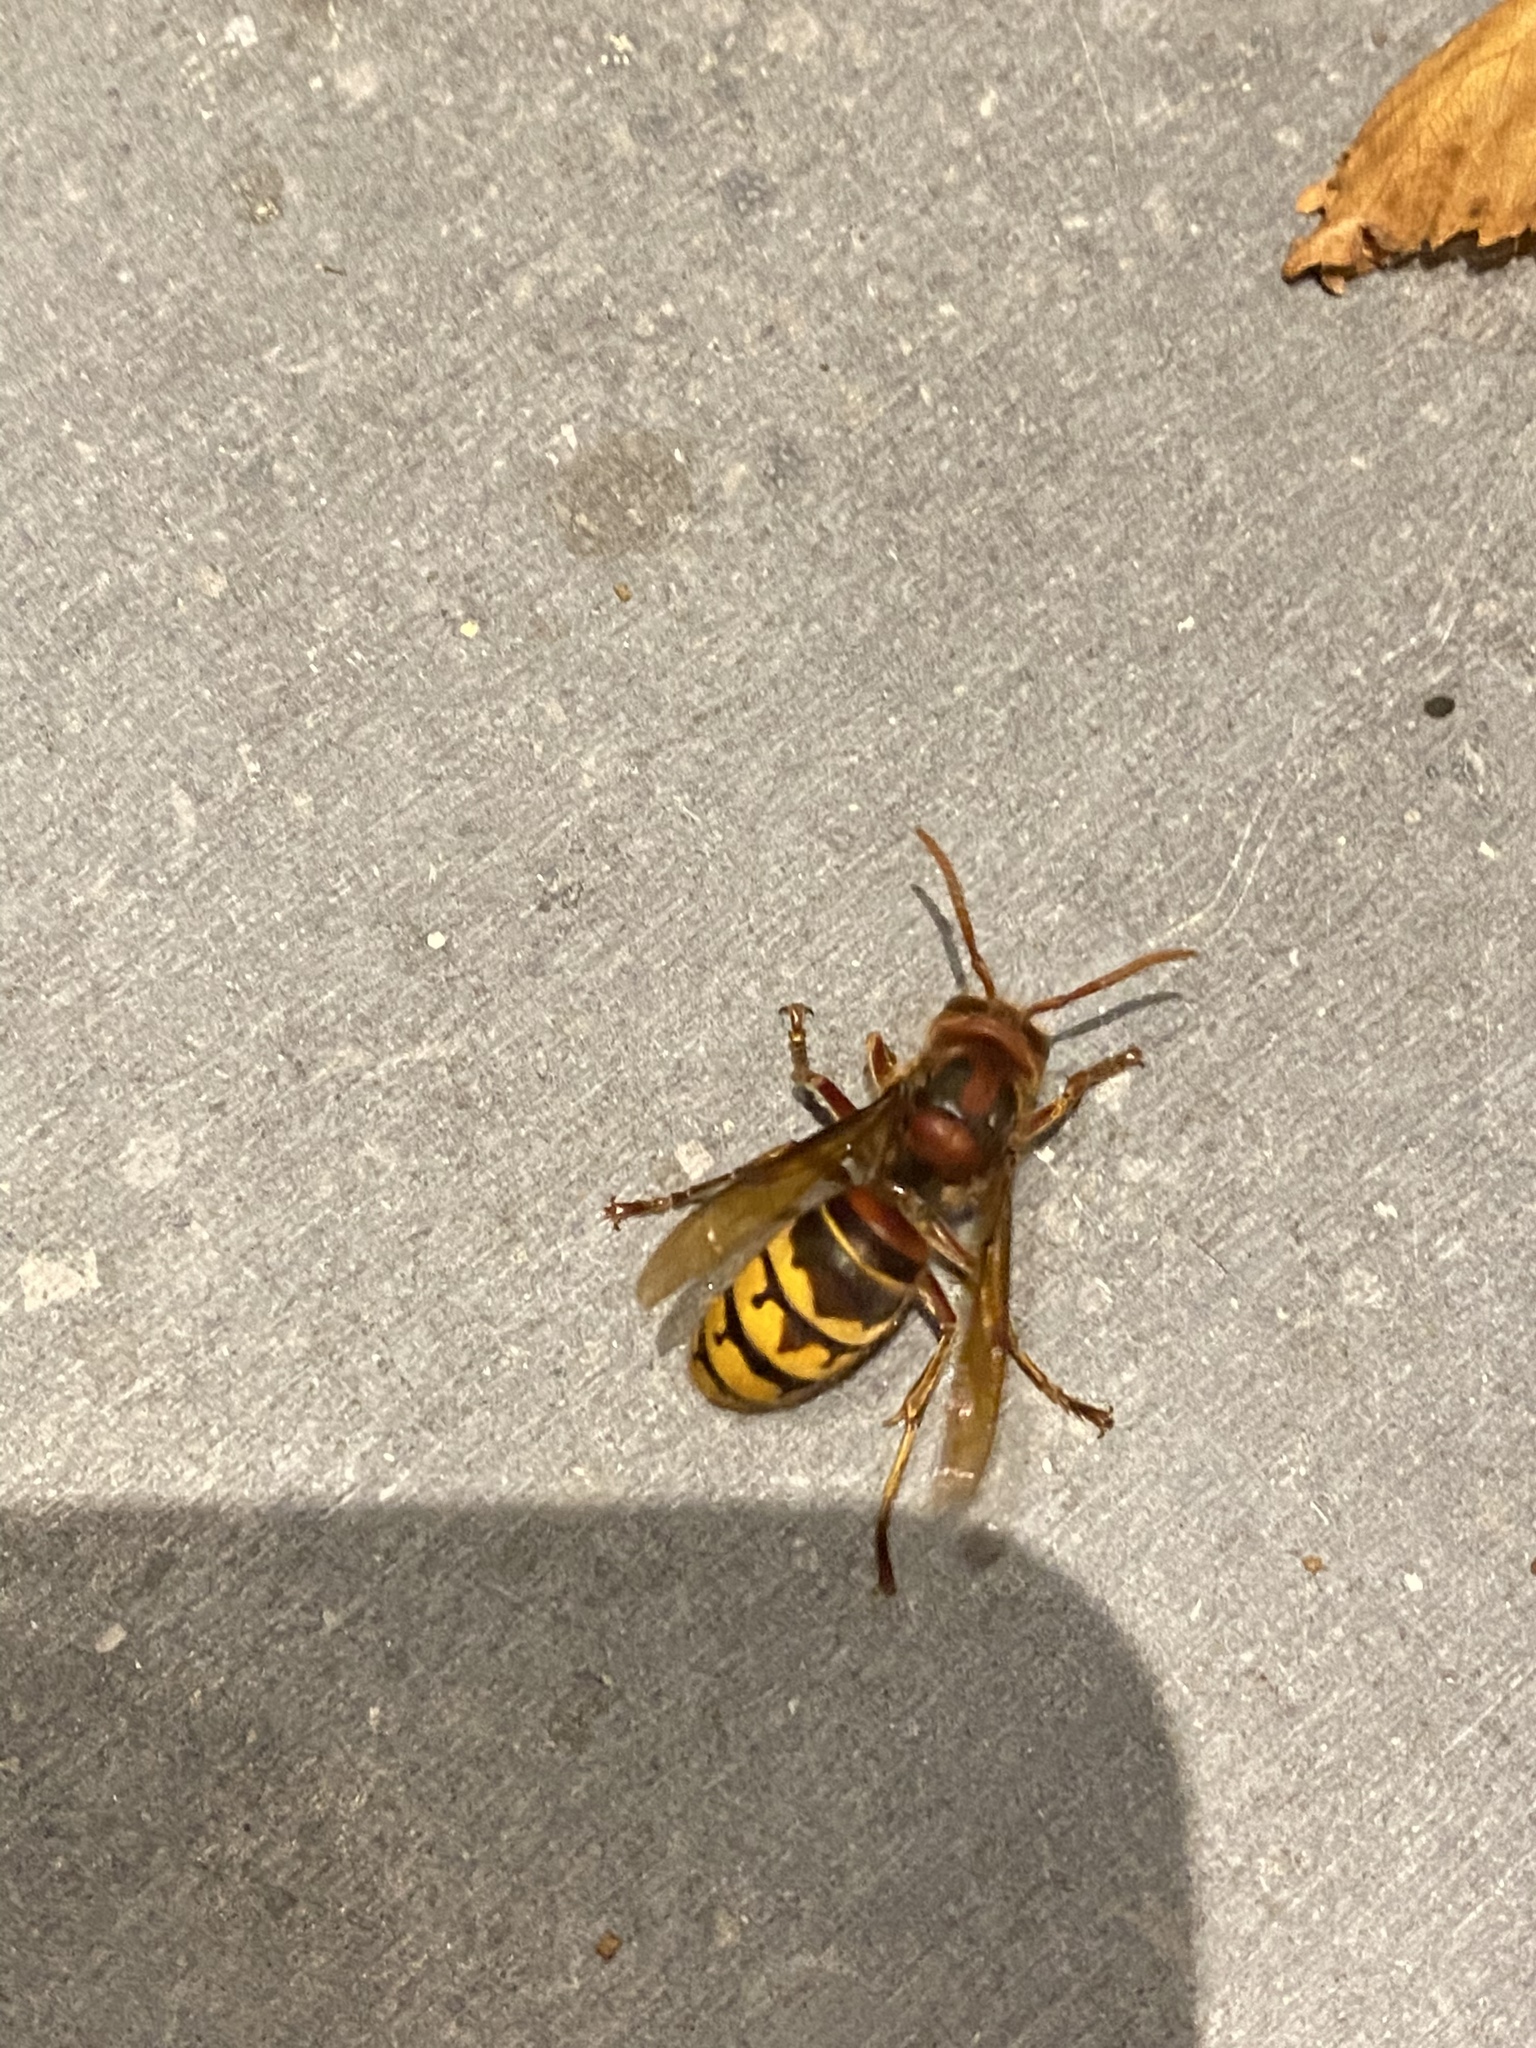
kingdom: Animalia
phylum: Arthropoda
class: Insecta
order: Hymenoptera
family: Vespidae
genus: Vespa
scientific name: Vespa crabro
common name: Hornet
